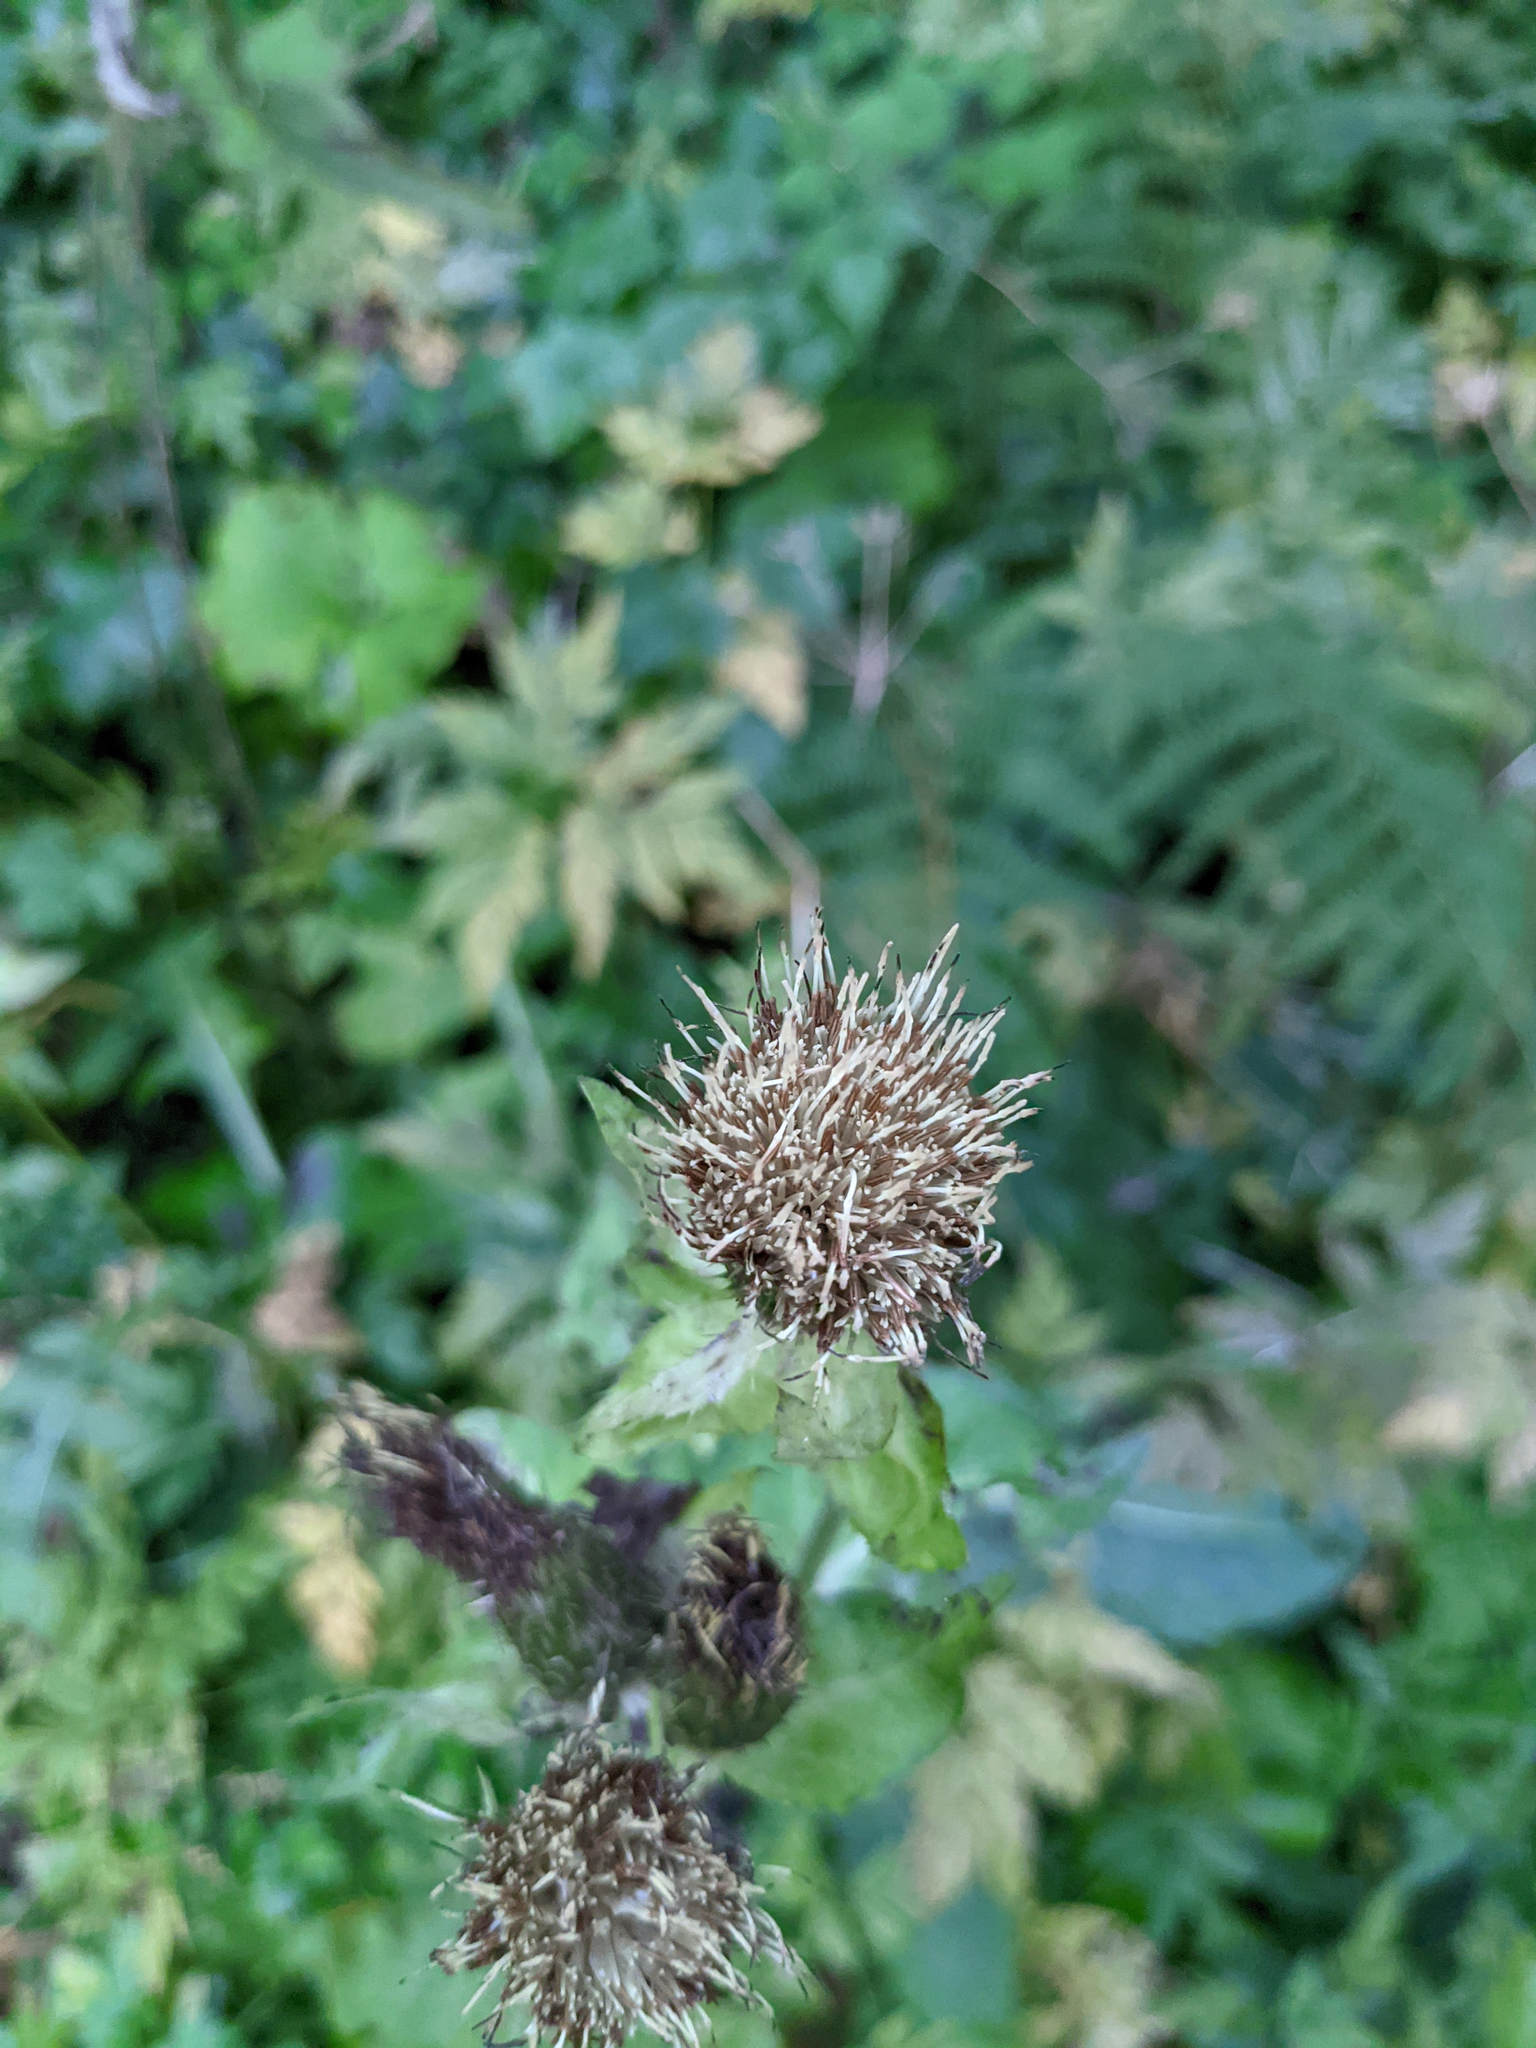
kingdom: Plantae
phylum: Tracheophyta
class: Magnoliopsida
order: Asterales
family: Asteraceae
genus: Cirsium
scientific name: Cirsium oleraceum
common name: Cabbage thistle
